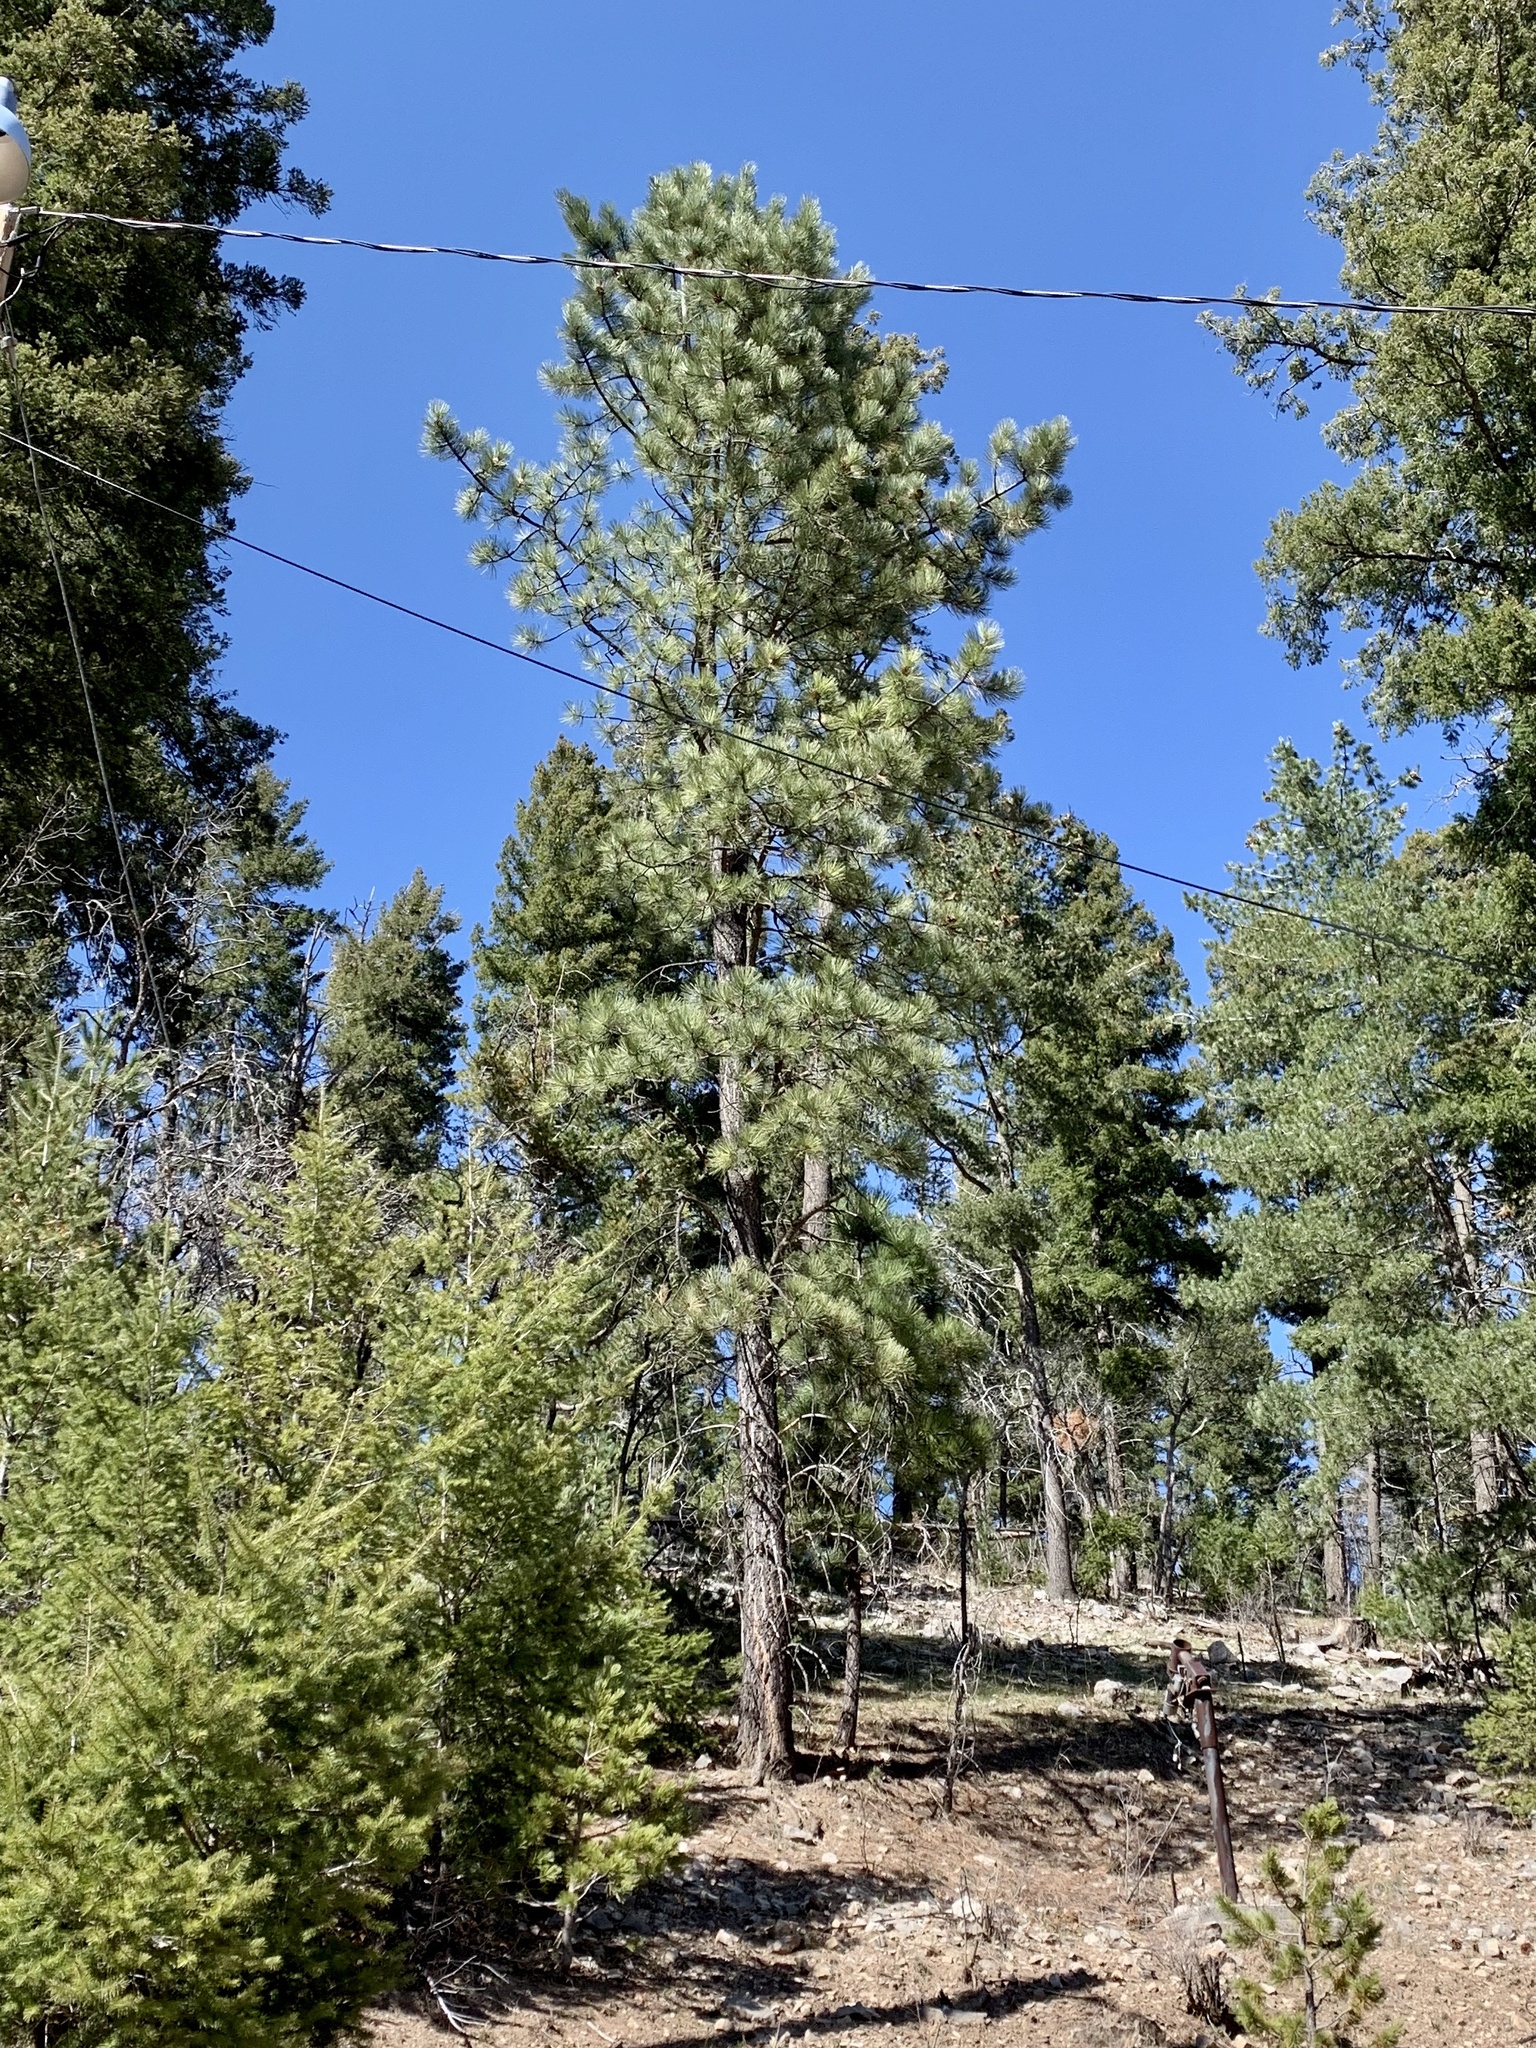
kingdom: Plantae
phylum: Tracheophyta
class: Pinopsida
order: Pinales
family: Pinaceae
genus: Pinus
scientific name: Pinus ponderosa
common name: Western yellow-pine
